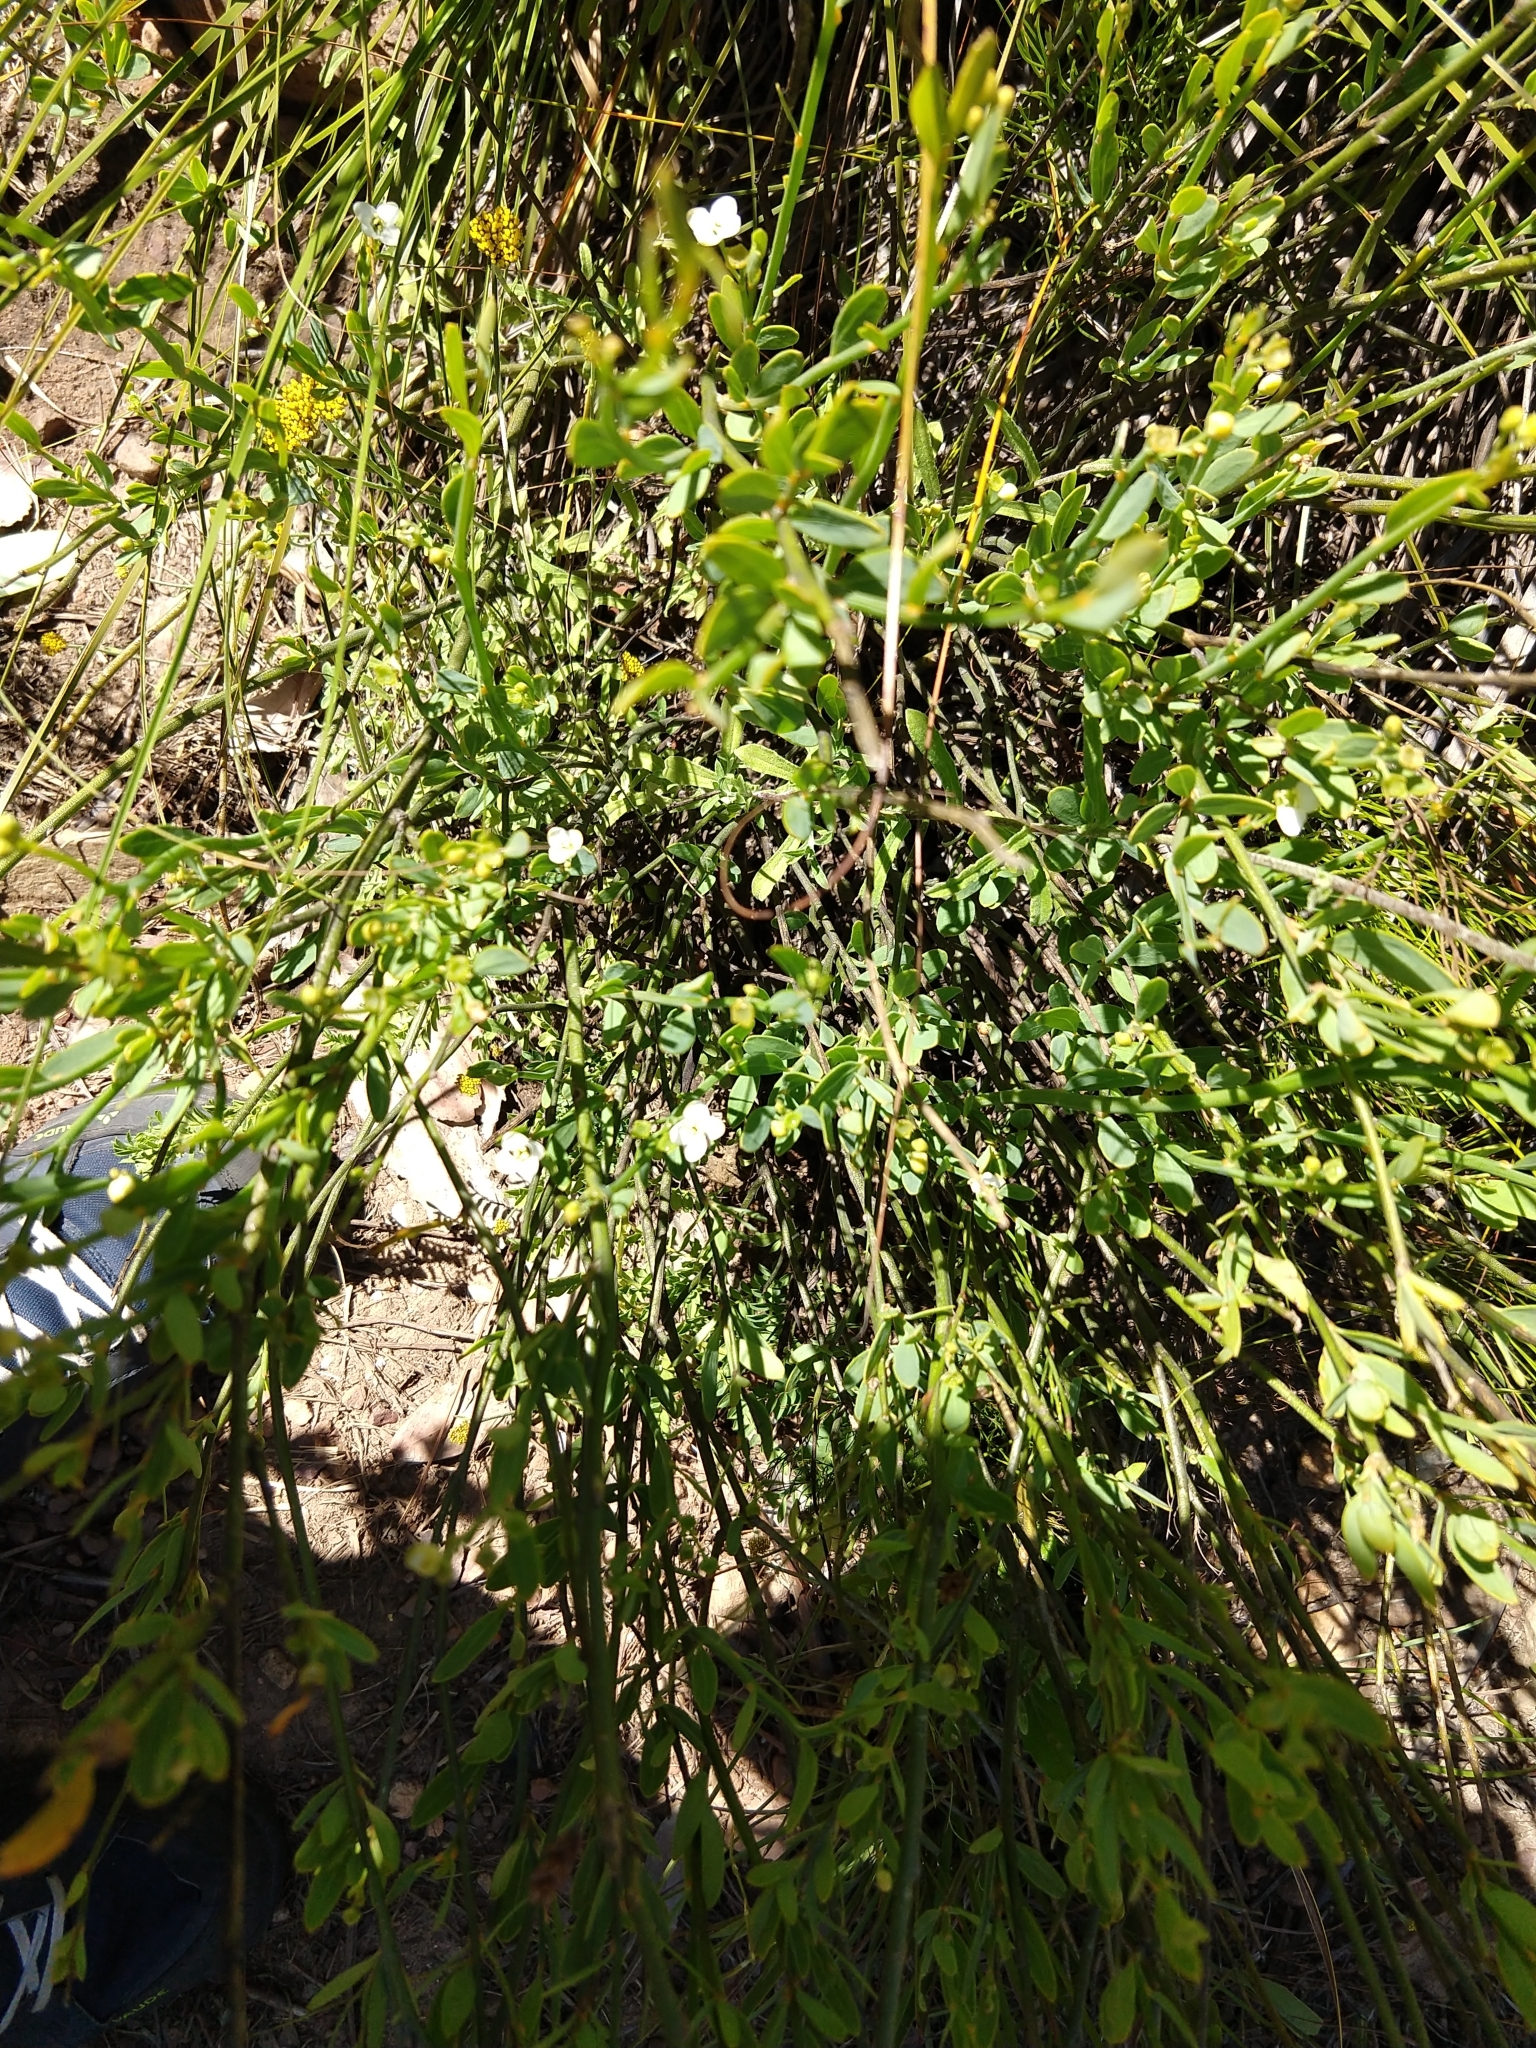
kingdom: Plantae
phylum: Tracheophyta
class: Magnoliopsida
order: Solanales
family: Montiniaceae
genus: Montinia
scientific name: Montinia caryophyllacea
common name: Wild clove-bush
